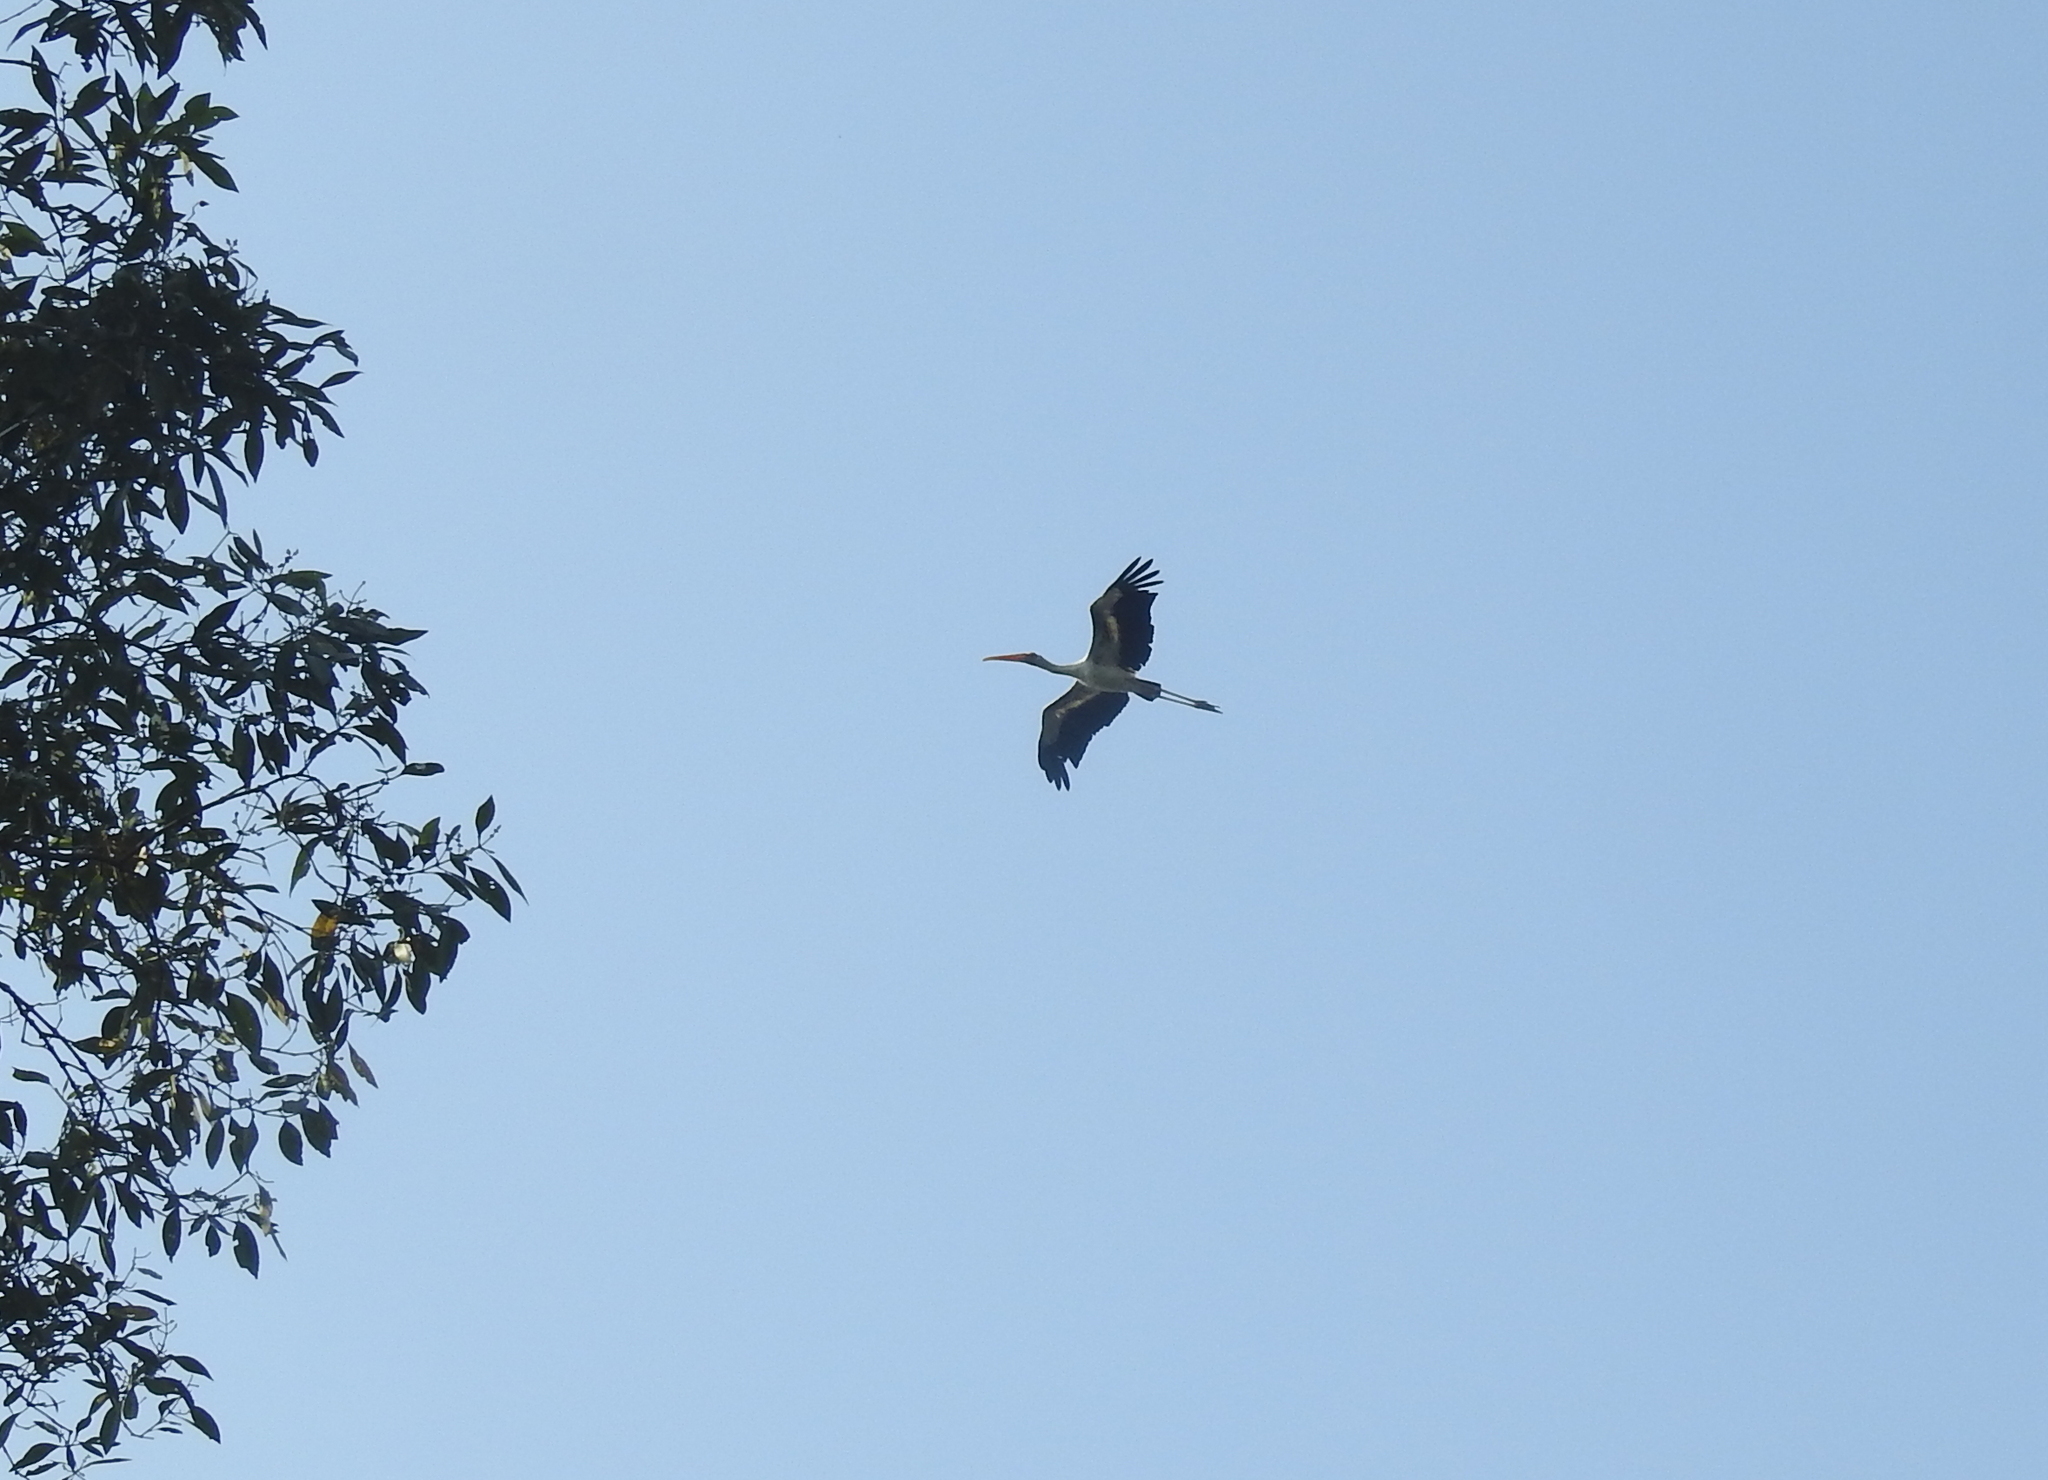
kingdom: Animalia
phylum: Chordata
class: Aves
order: Ciconiiformes
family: Ciconiidae
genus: Mycteria
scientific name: Mycteria cinerea
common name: Milky stork
